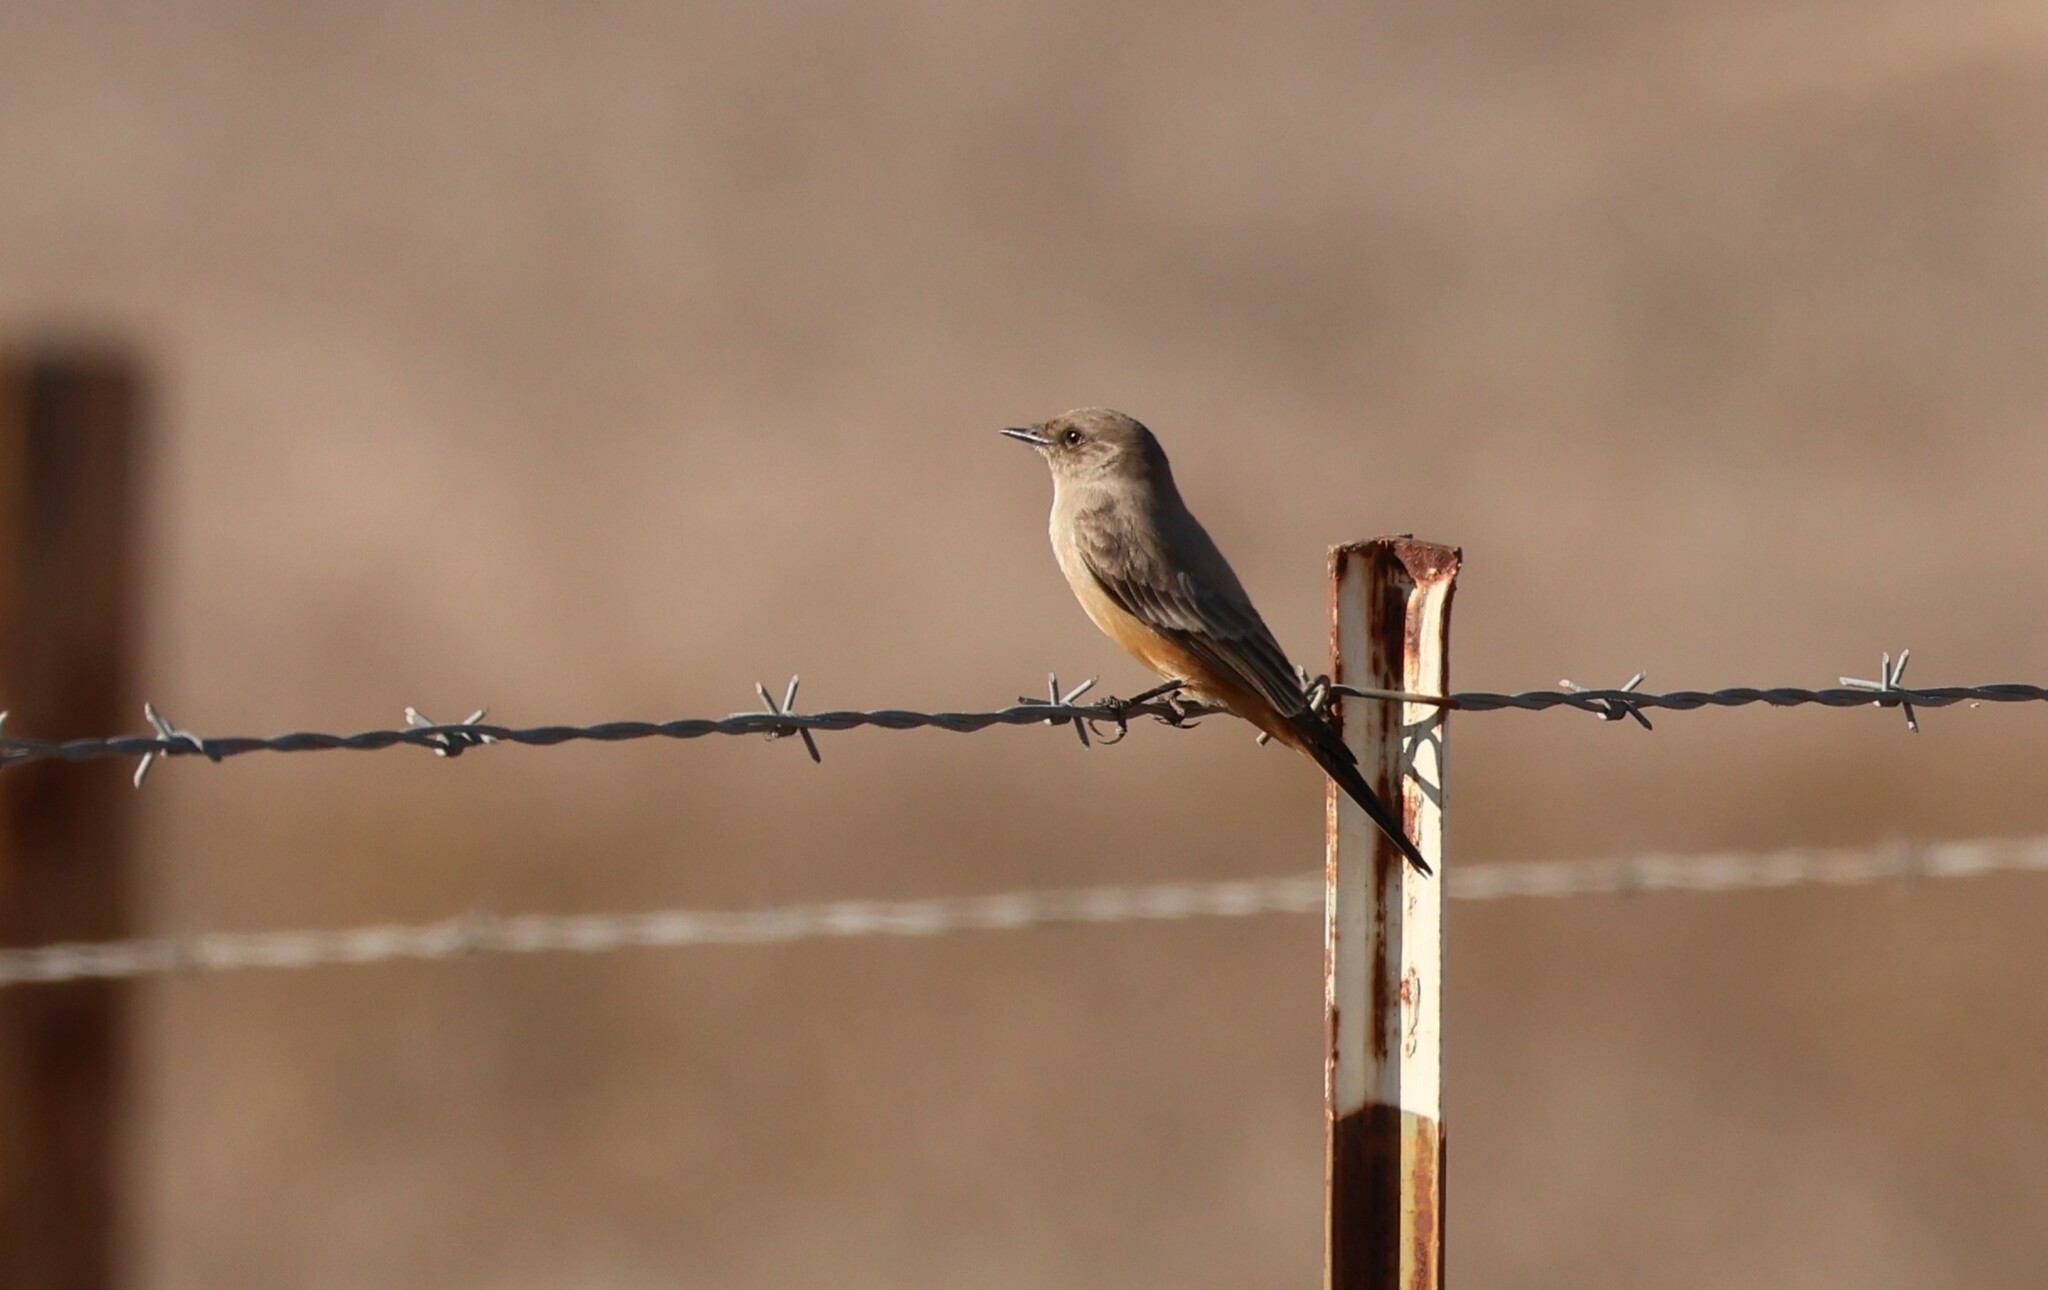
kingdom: Animalia
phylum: Chordata
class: Aves
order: Passeriformes
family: Tyrannidae
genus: Sayornis
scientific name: Sayornis saya
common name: Say's phoebe
